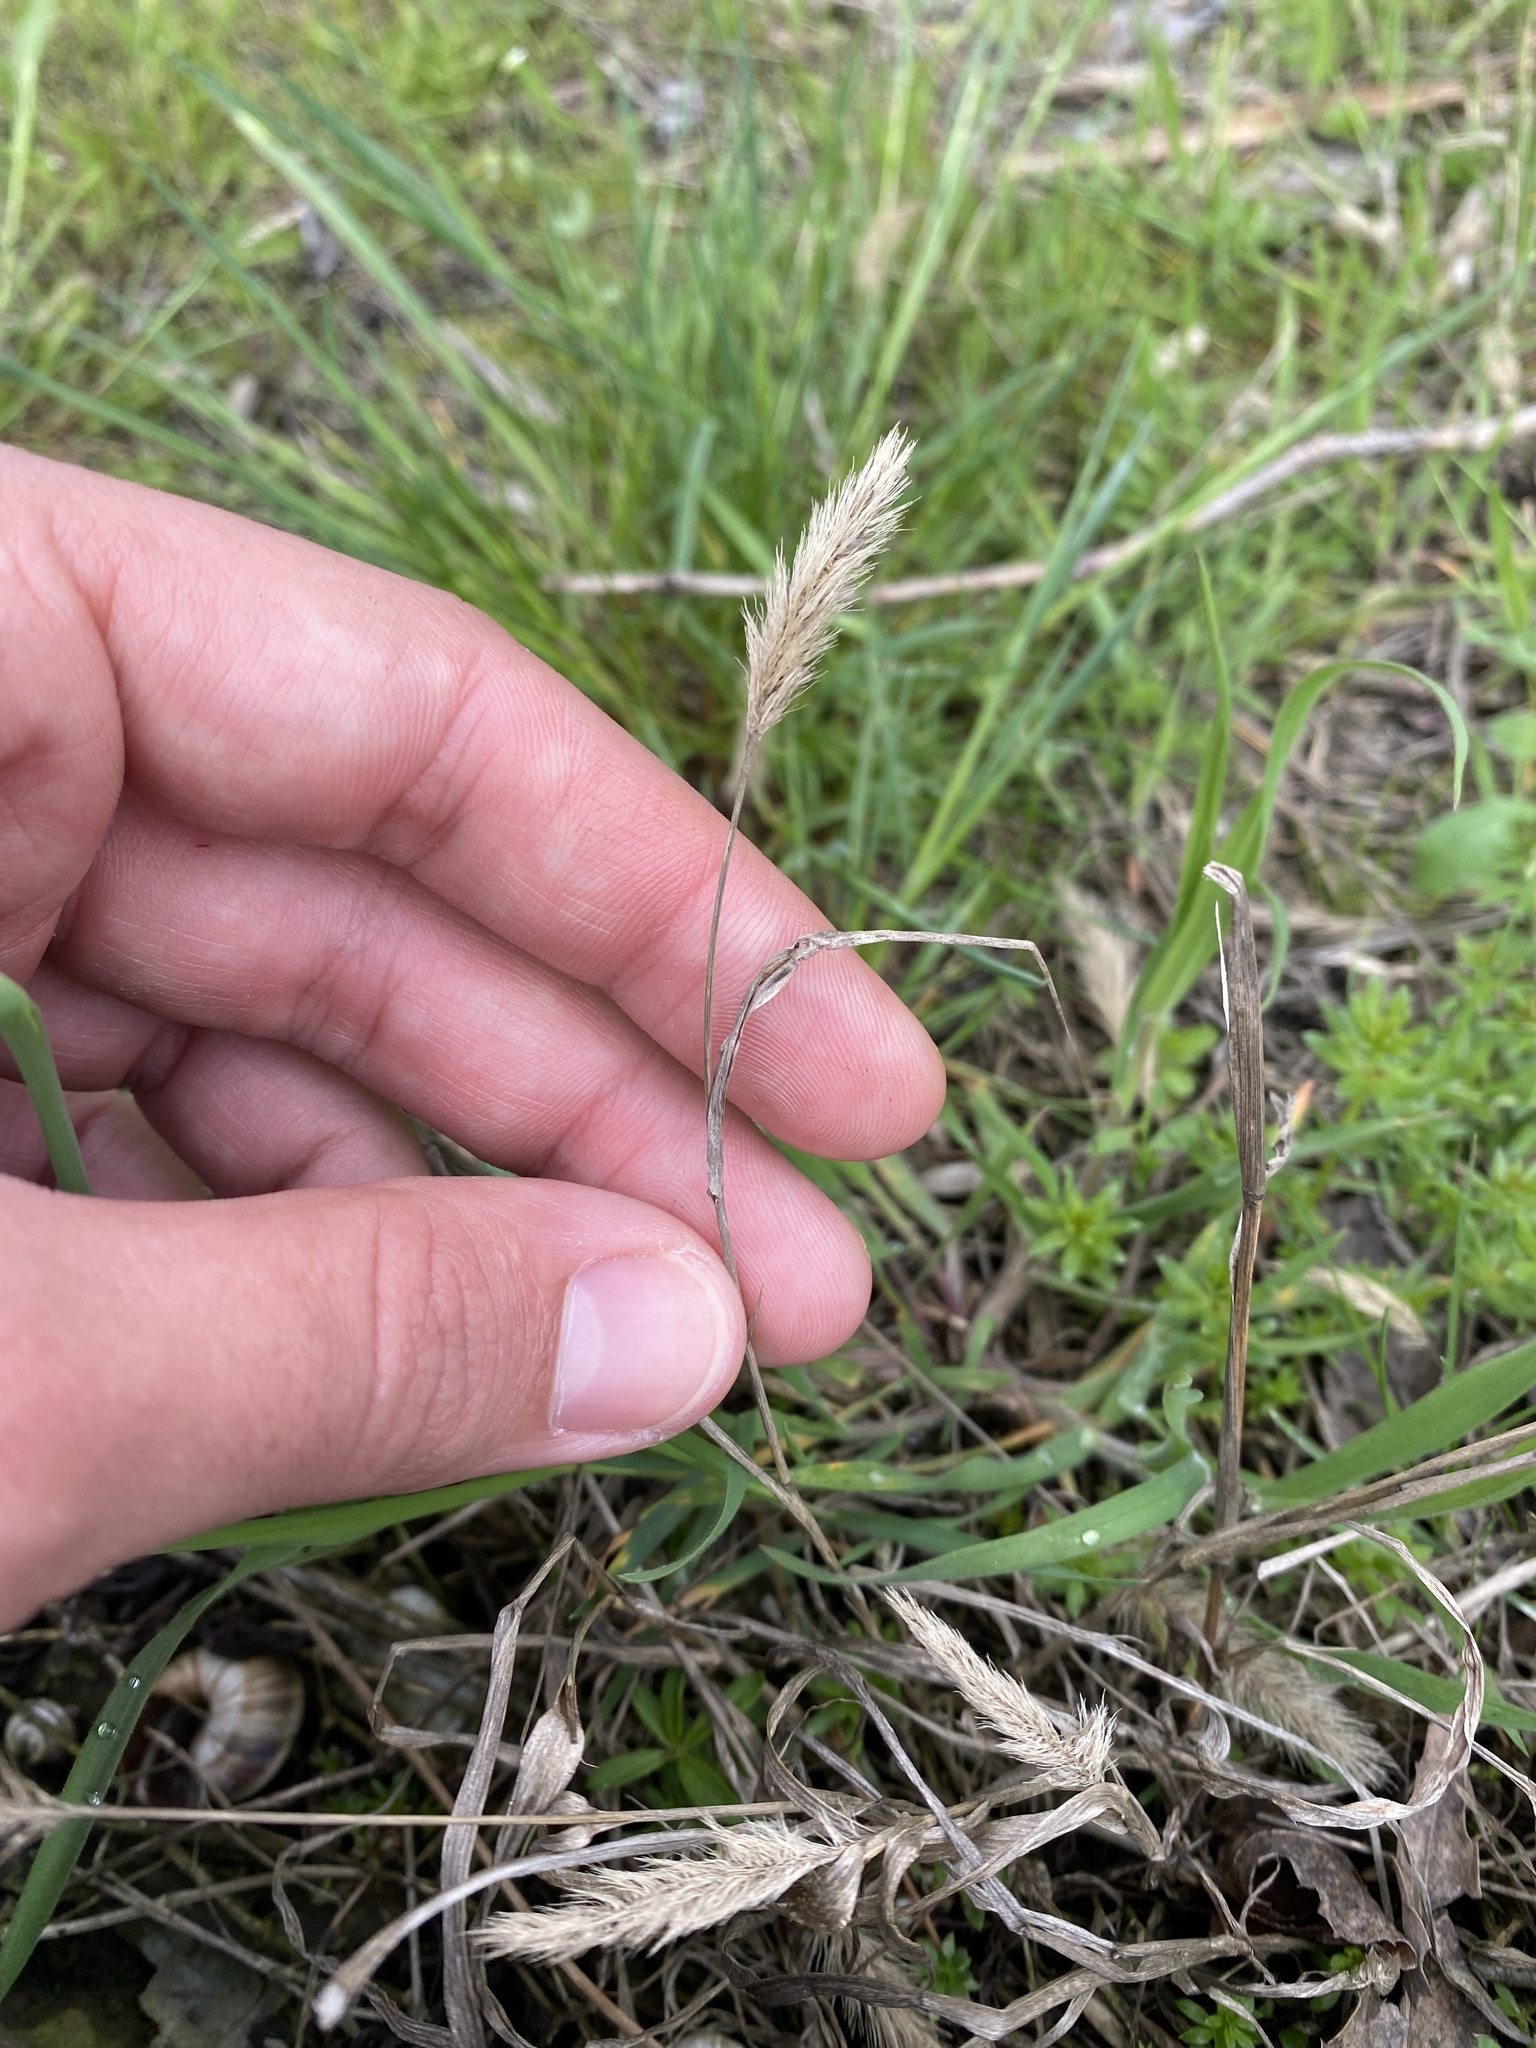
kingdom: Plantae
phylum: Tracheophyta
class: Liliopsida
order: Poales
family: Poaceae
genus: Setaria
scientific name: Setaria viridis
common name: Green bristlegrass
